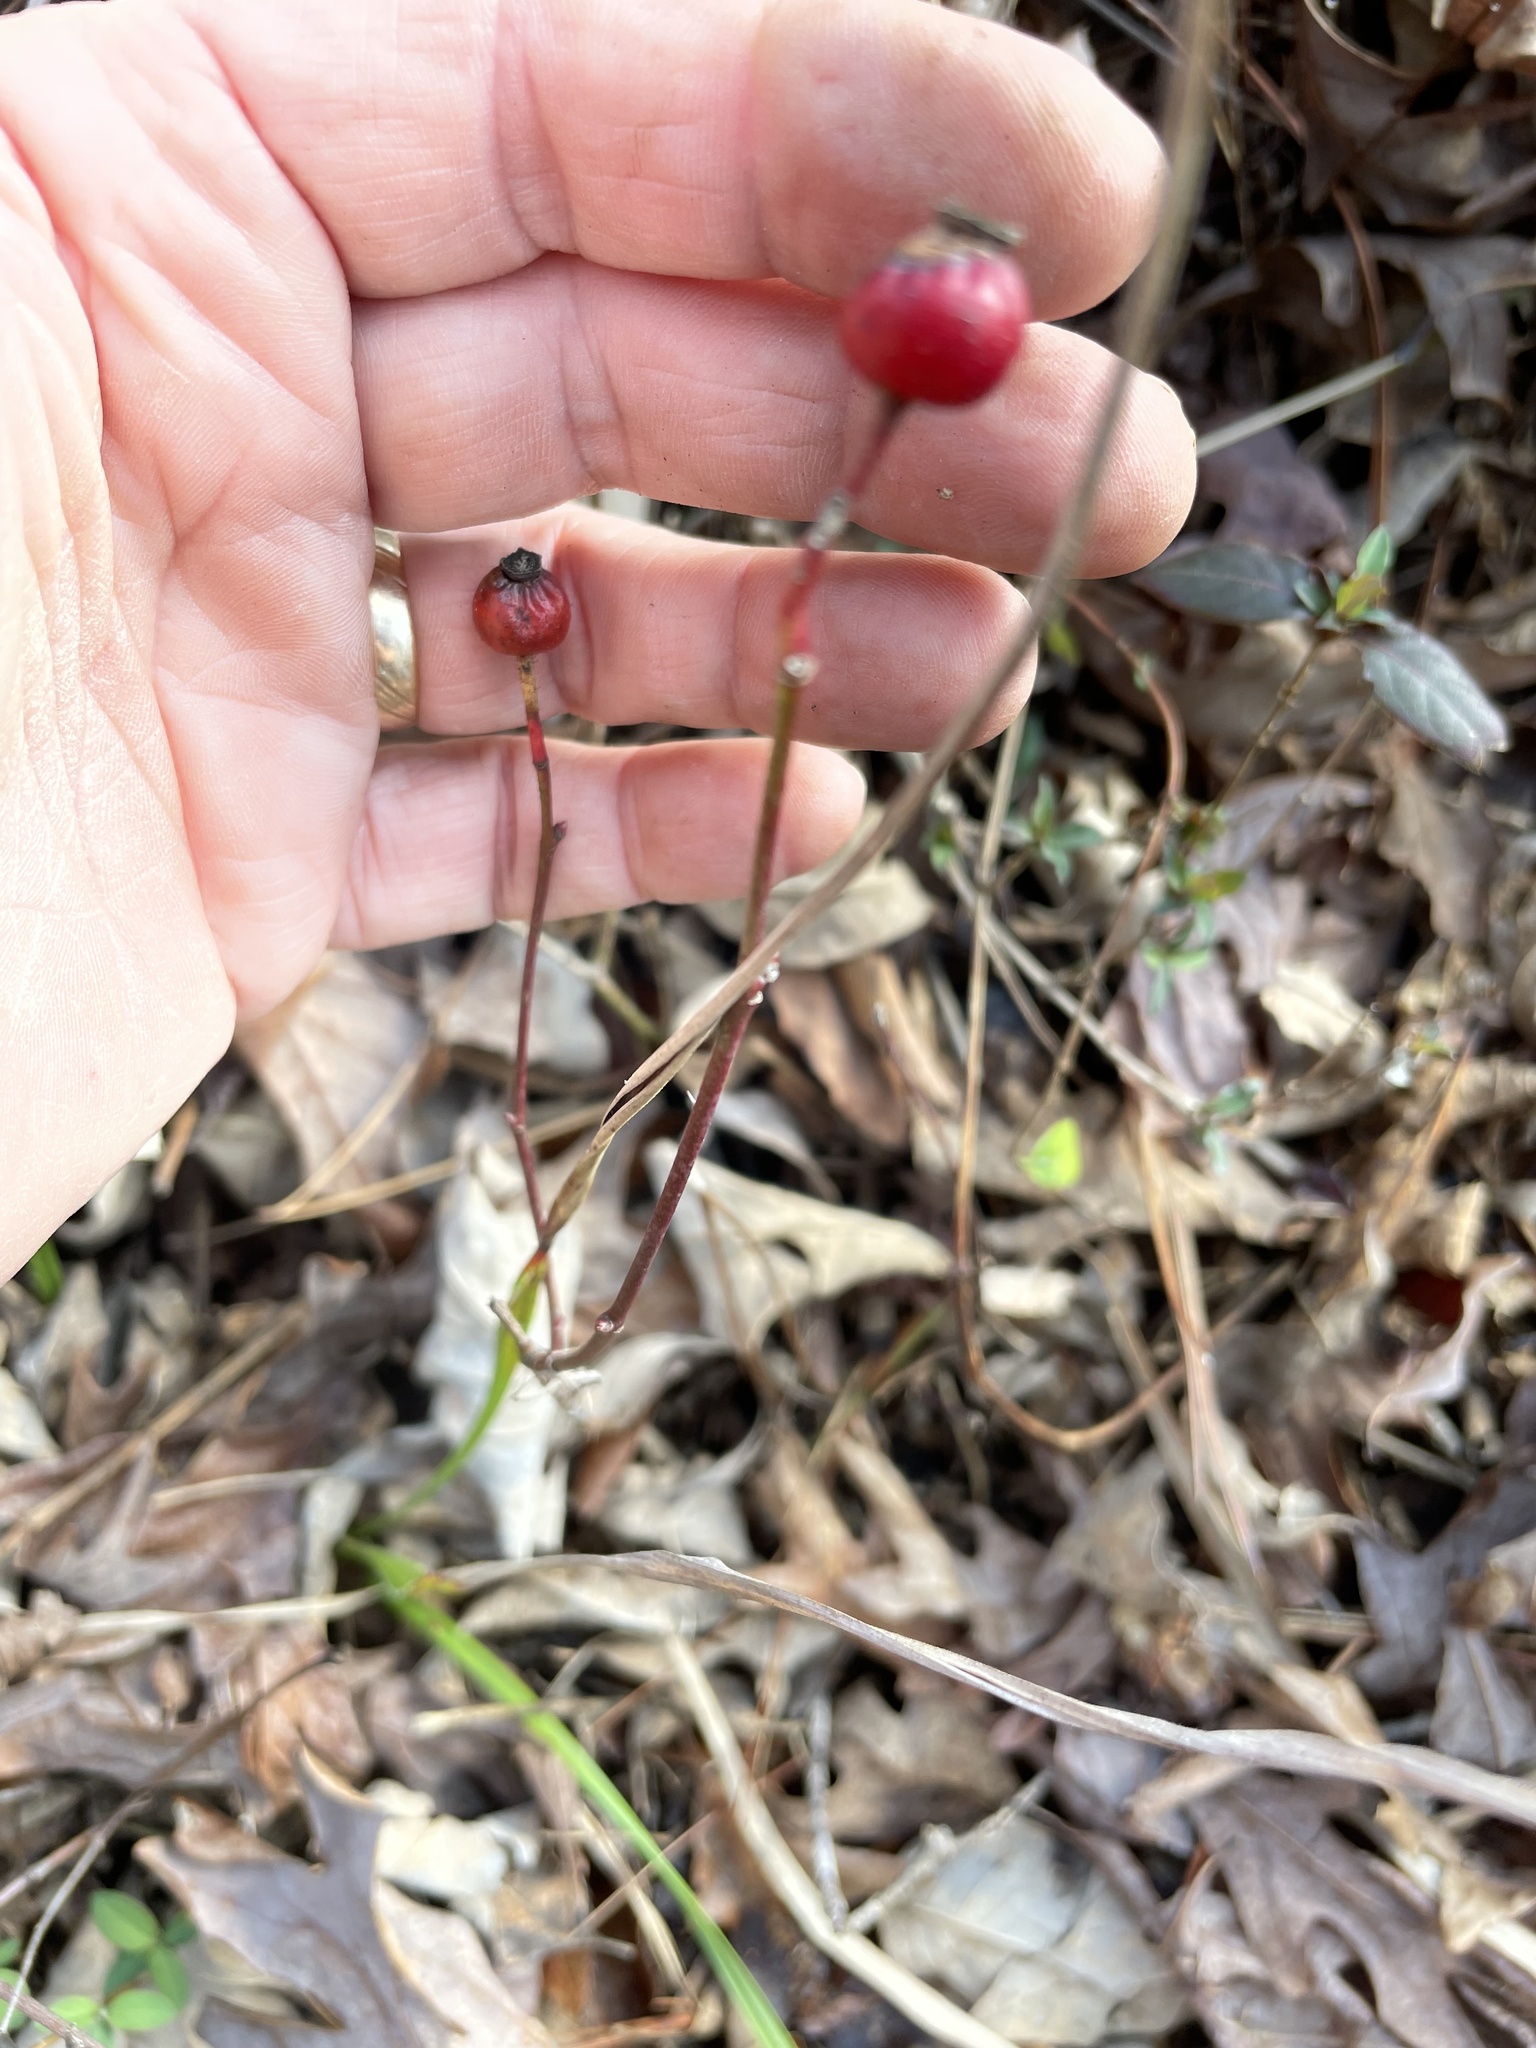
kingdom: Plantae
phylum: Tracheophyta
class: Magnoliopsida
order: Rosales
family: Rosaceae
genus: Rosa
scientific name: Rosa carolina
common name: Pasture rose
